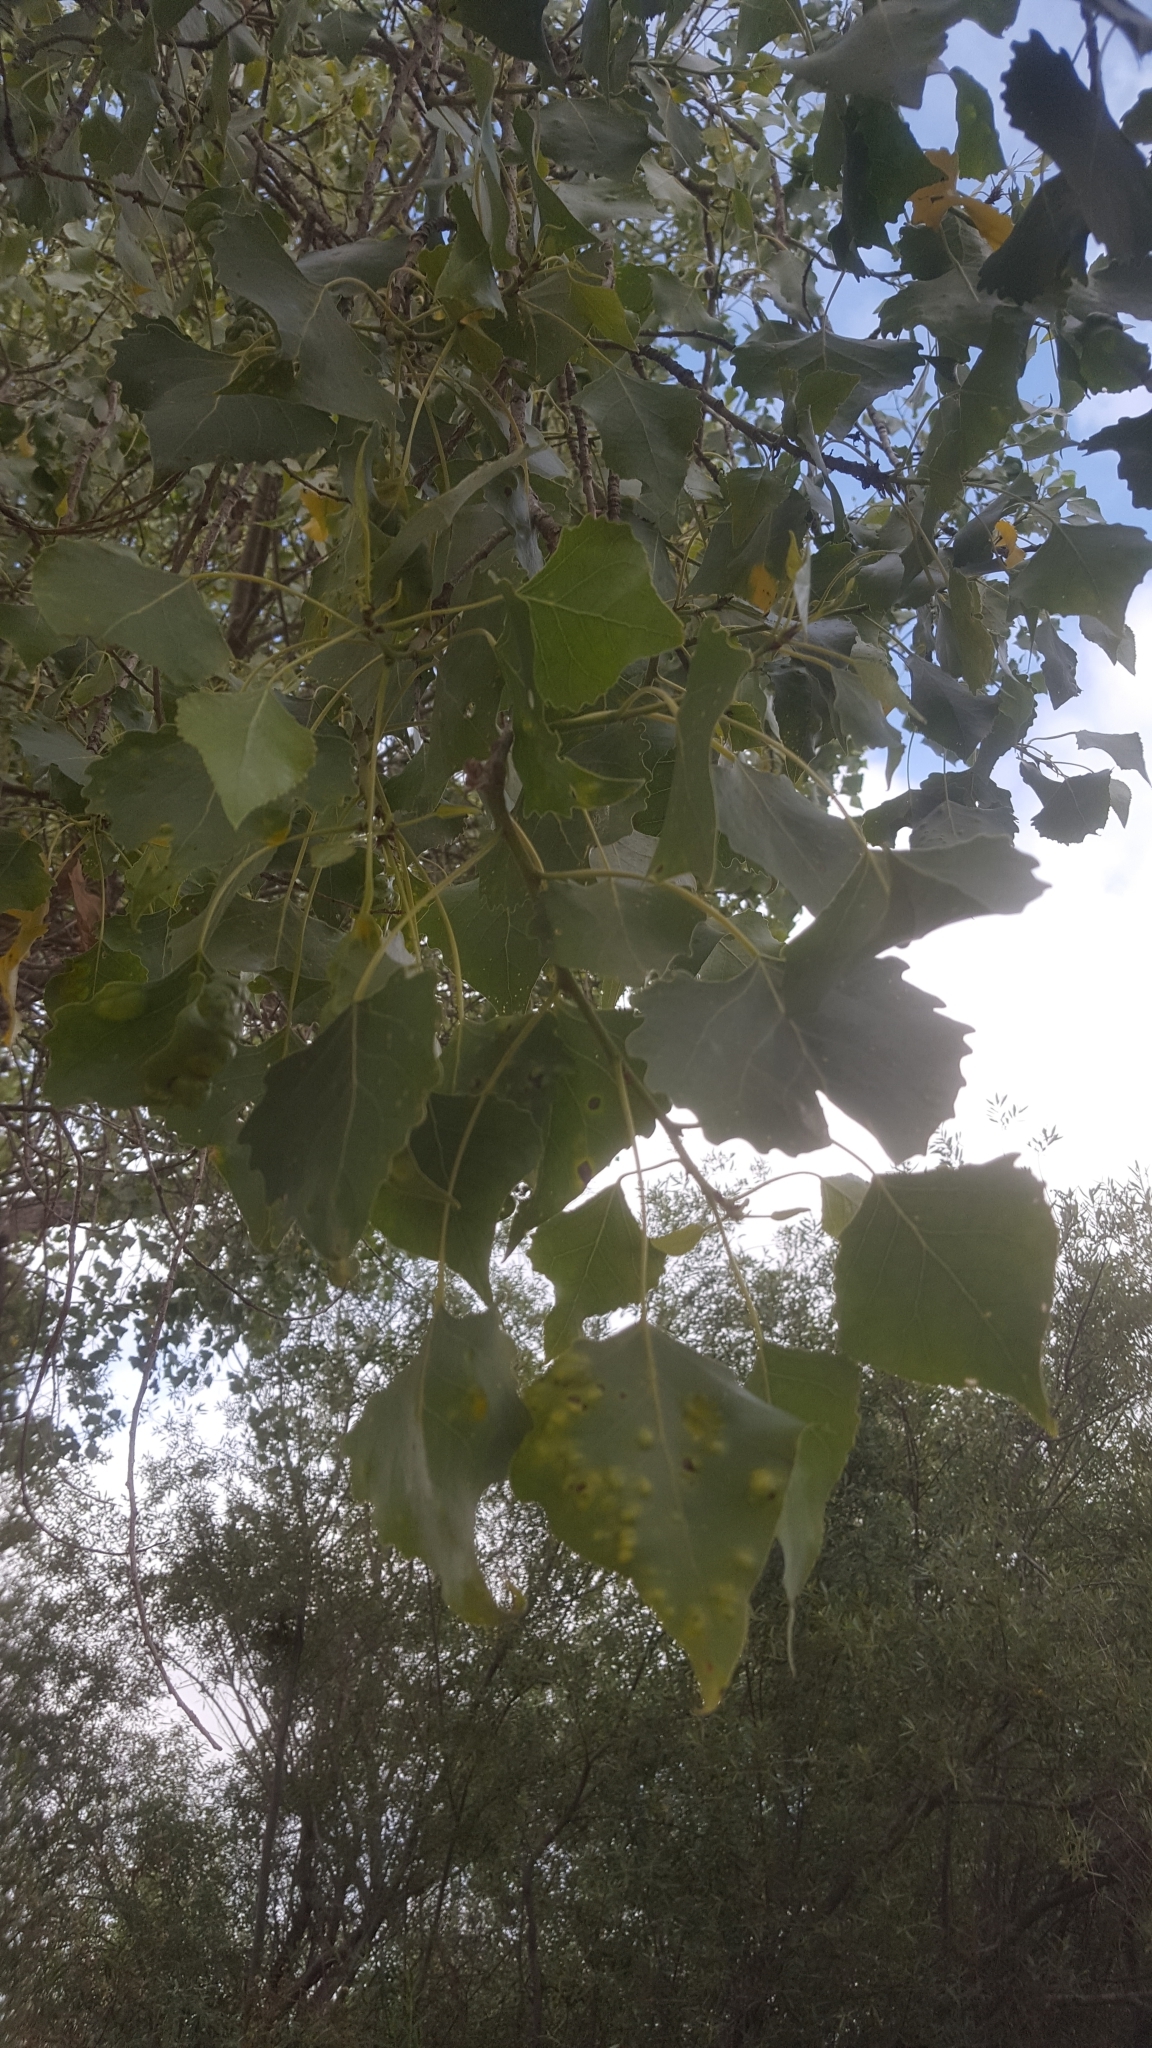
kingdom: Plantae
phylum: Tracheophyta
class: Magnoliopsida
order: Malpighiales
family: Salicaceae
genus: Populus
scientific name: Populus fremontii
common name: Fremont's cottonwood
